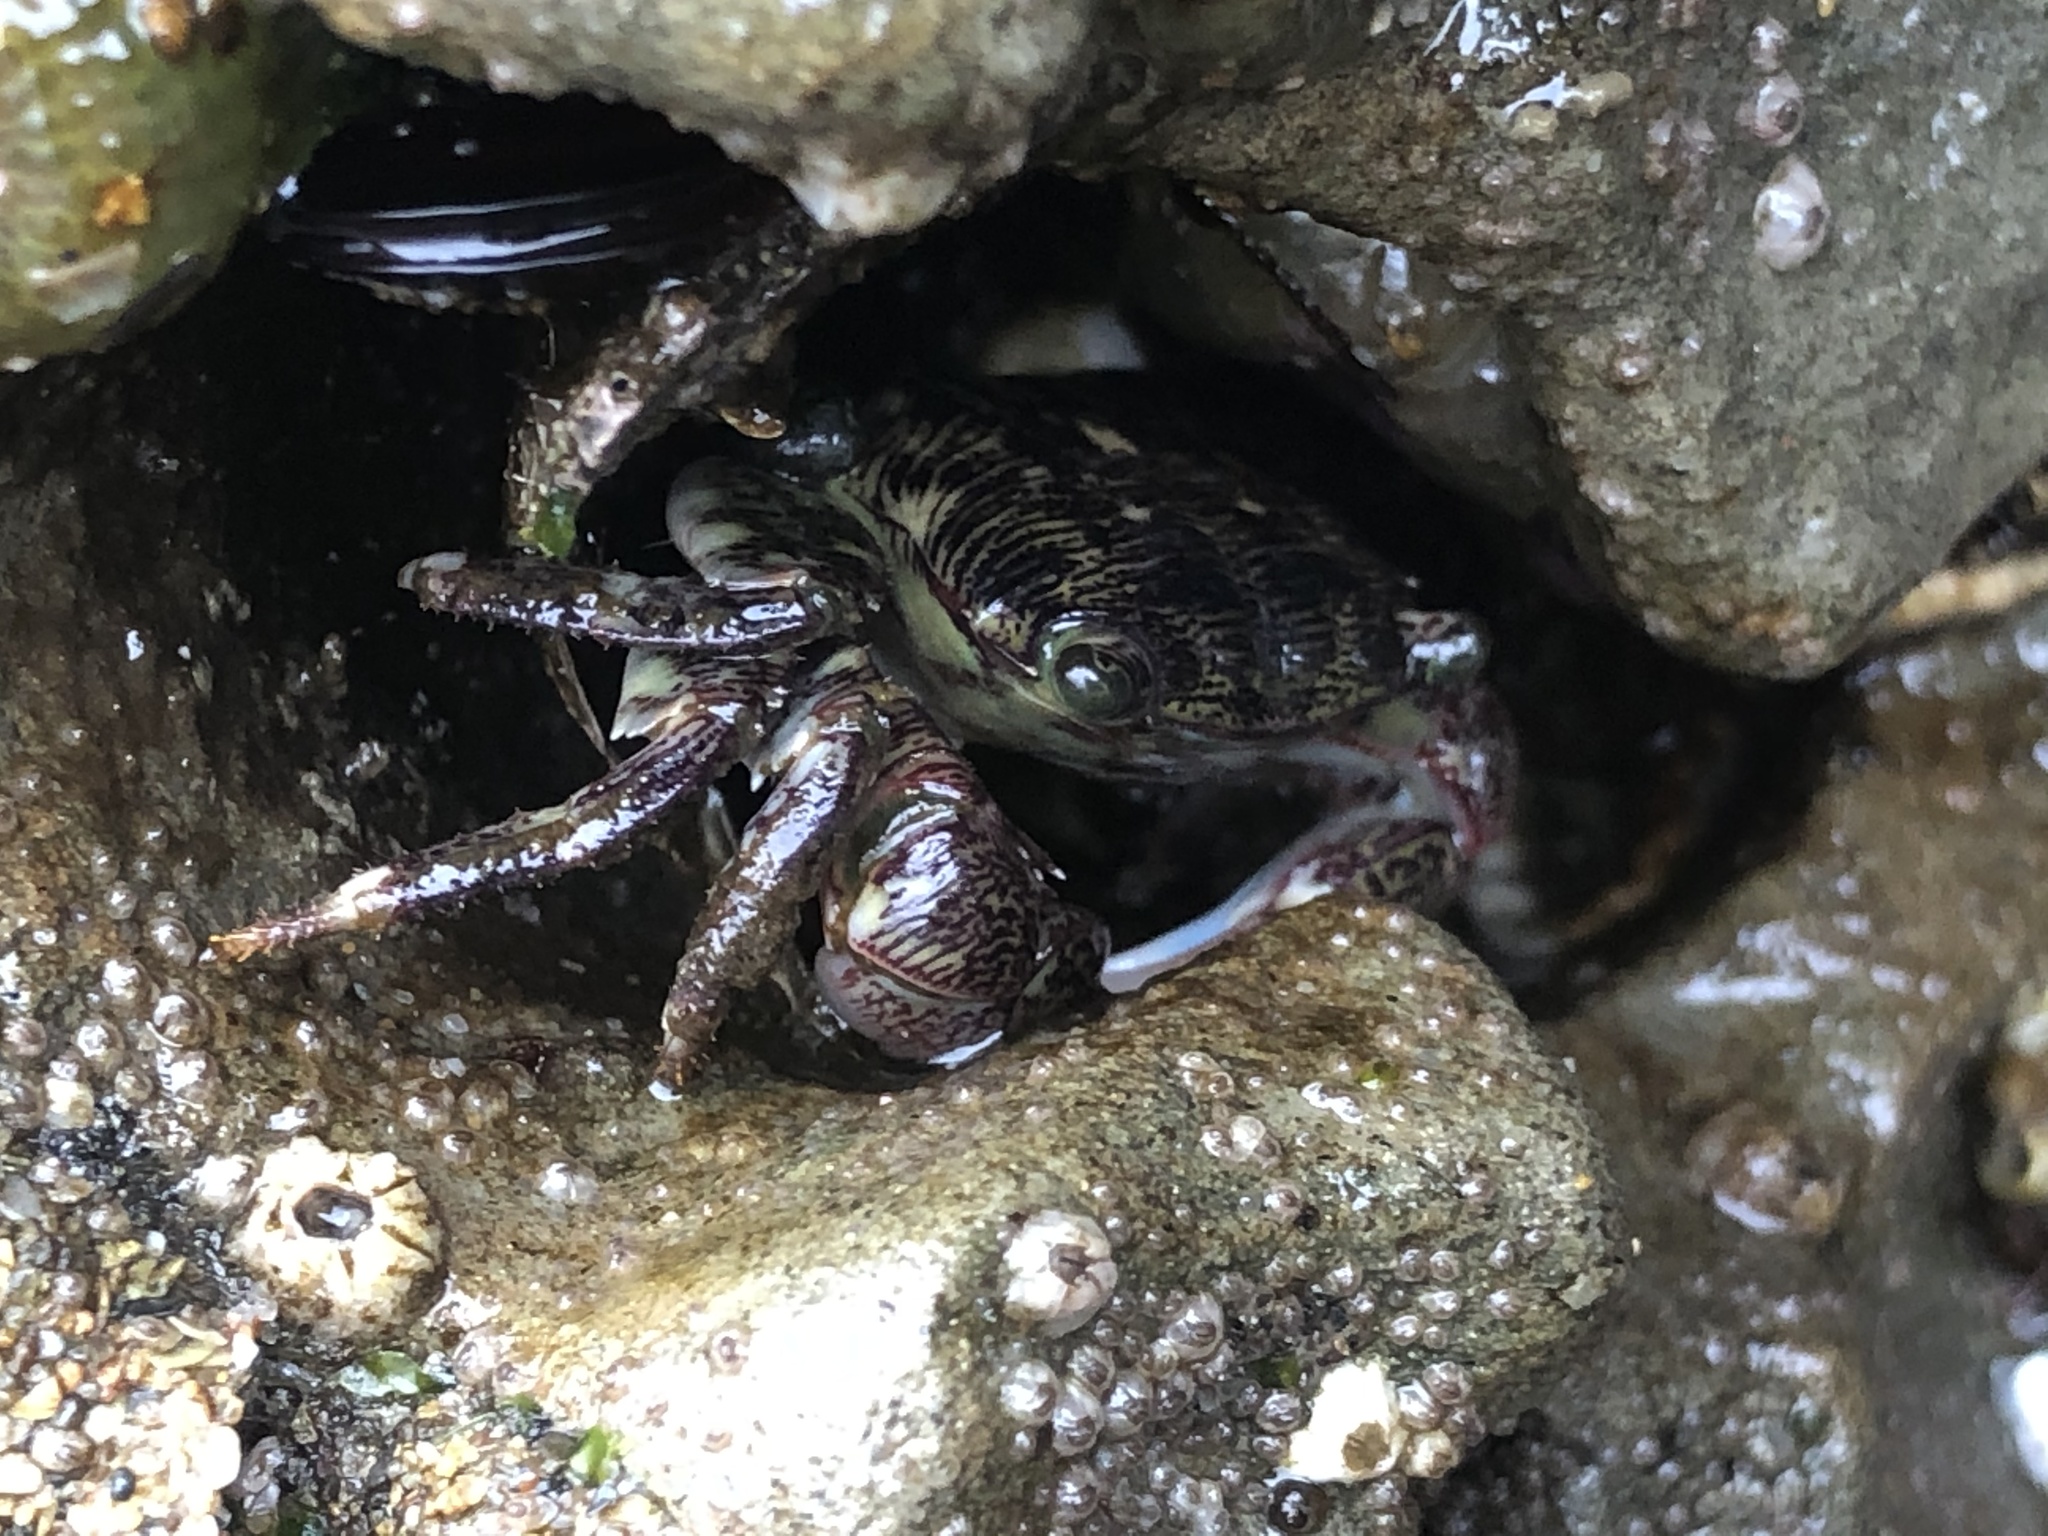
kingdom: Animalia
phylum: Arthropoda
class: Malacostraca
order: Decapoda
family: Grapsidae
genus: Pachygrapsus
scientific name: Pachygrapsus crassipes
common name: Striped shore crab
